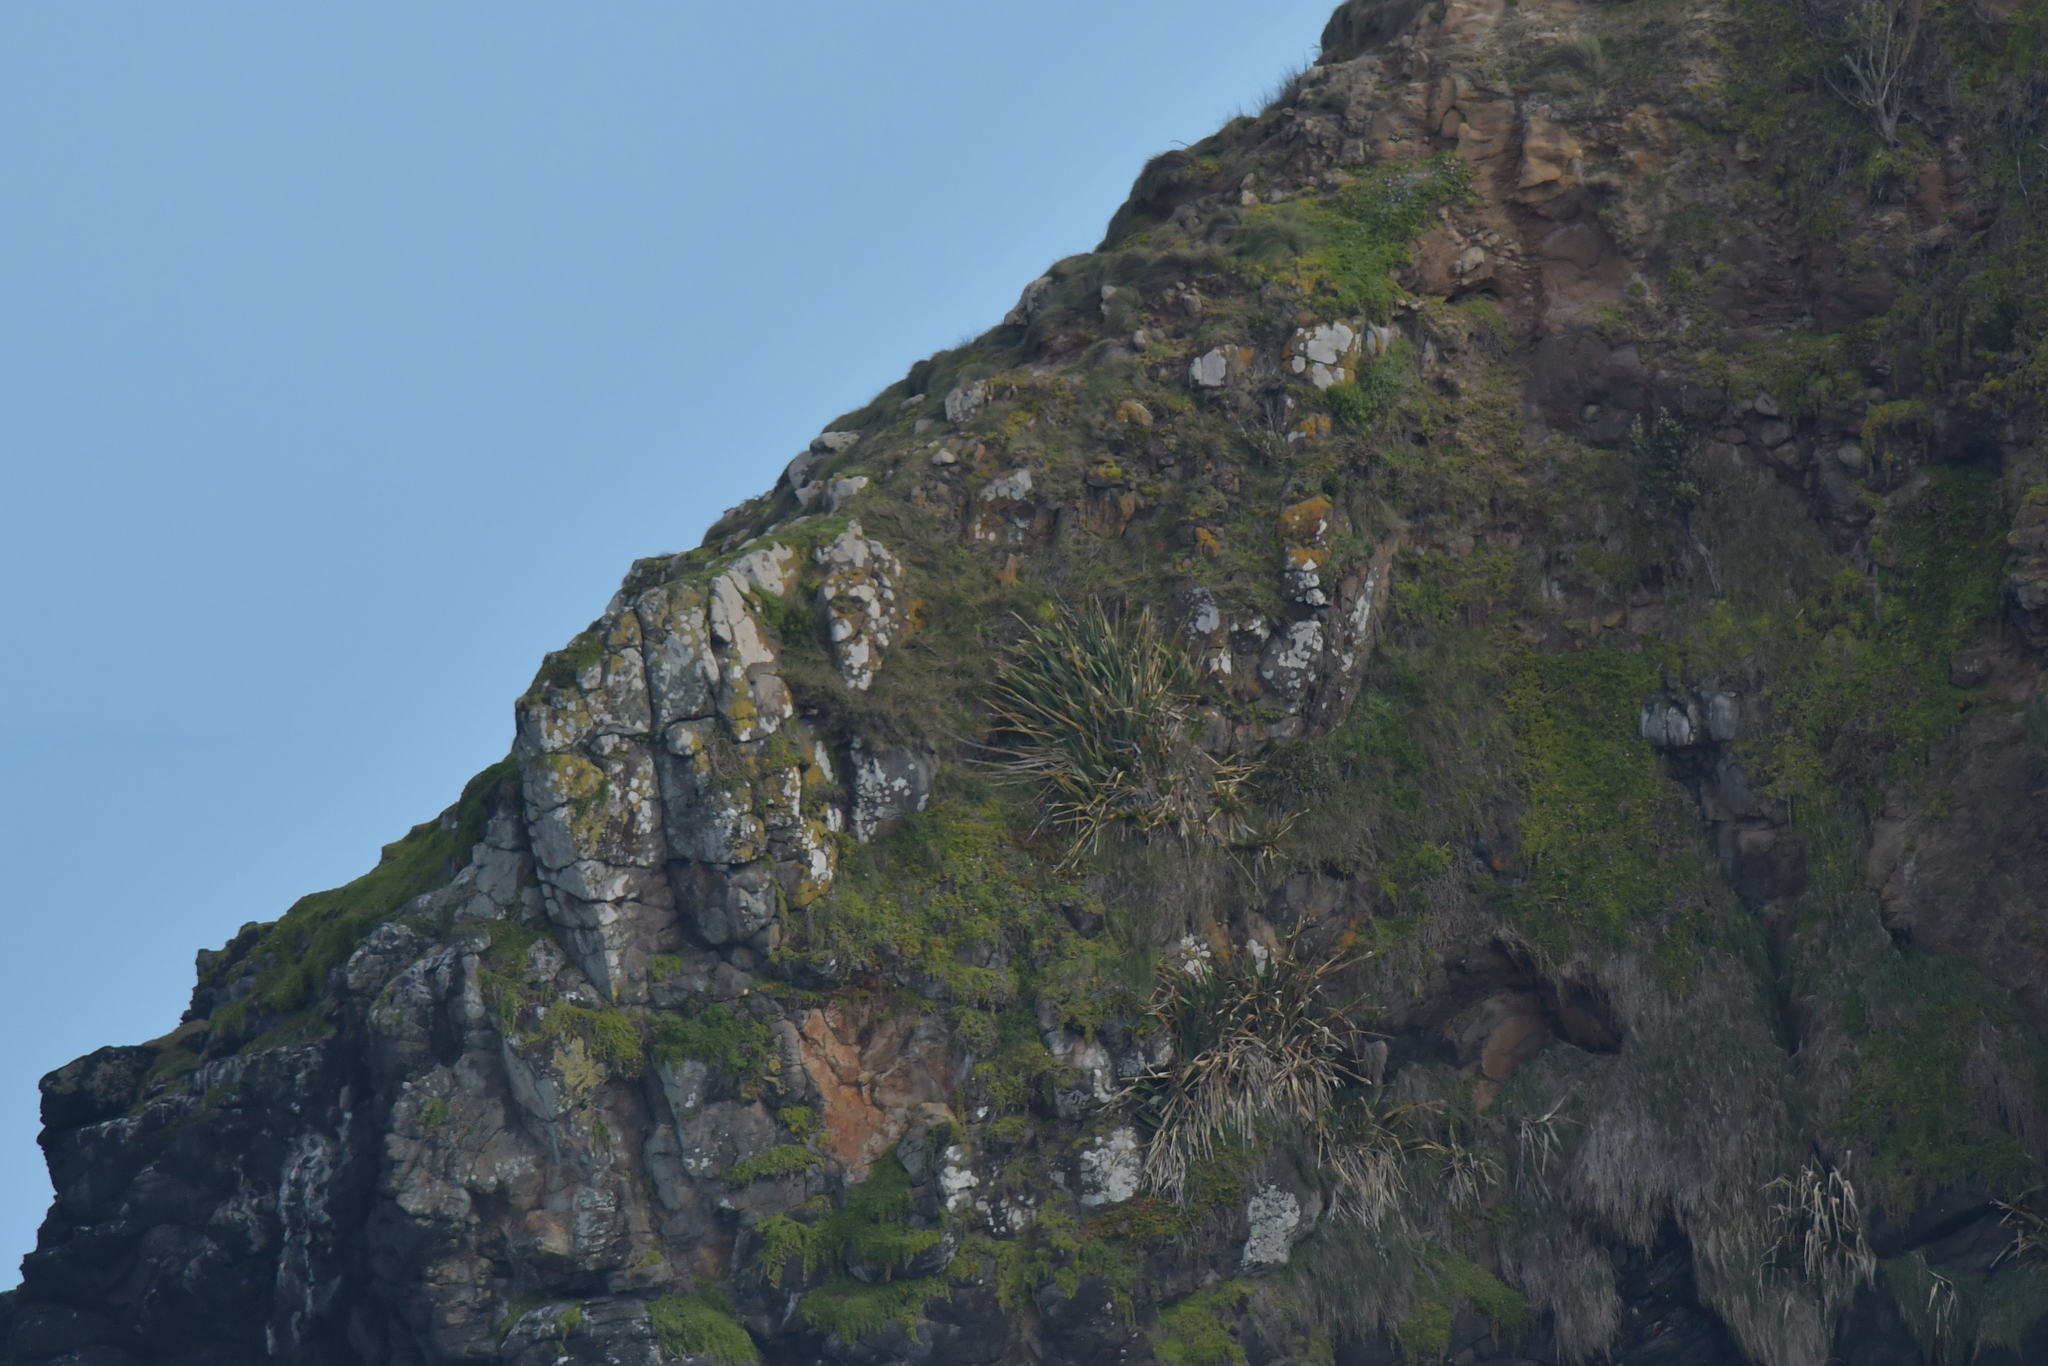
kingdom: Plantae
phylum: Tracheophyta
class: Magnoliopsida
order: Caryophyllales
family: Aizoaceae
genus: Disphyma
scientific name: Disphyma papillatum
